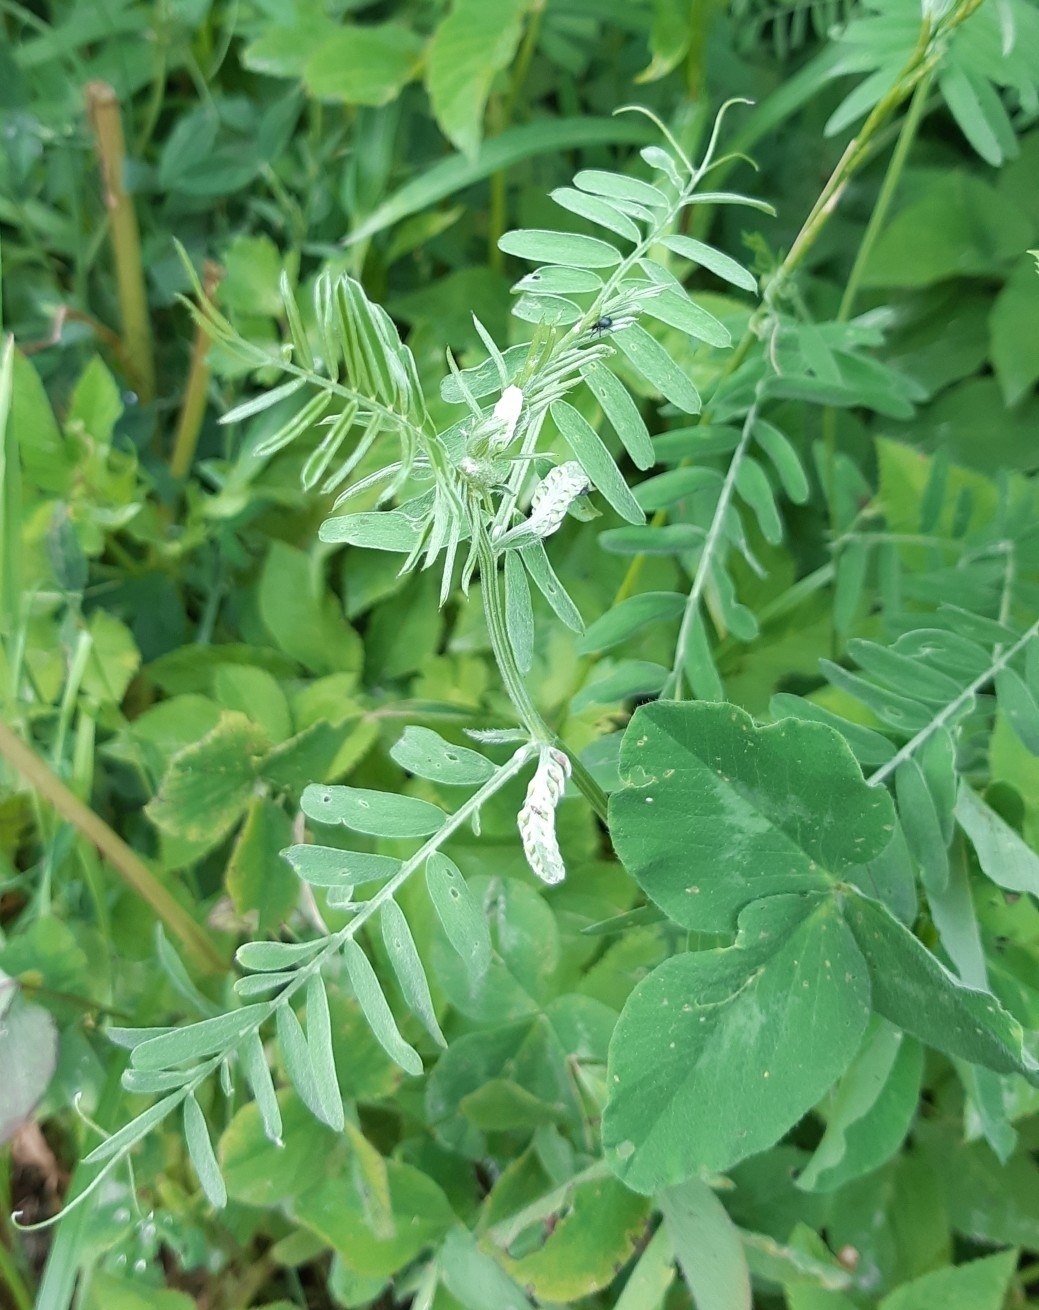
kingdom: Plantae
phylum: Tracheophyta
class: Magnoliopsida
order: Fabales
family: Fabaceae
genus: Vicia
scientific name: Vicia cracca
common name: Bird vetch
